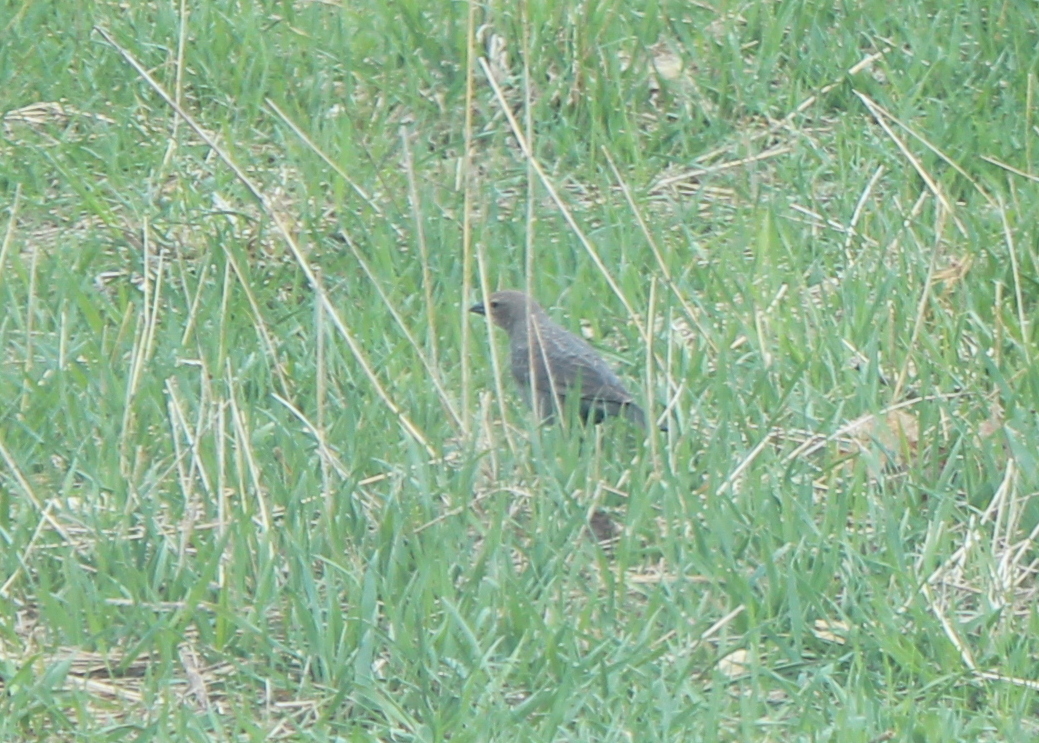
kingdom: Animalia
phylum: Chordata
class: Aves
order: Passeriformes
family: Icteridae
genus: Molothrus
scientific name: Molothrus ater
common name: Brown-headed cowbird
